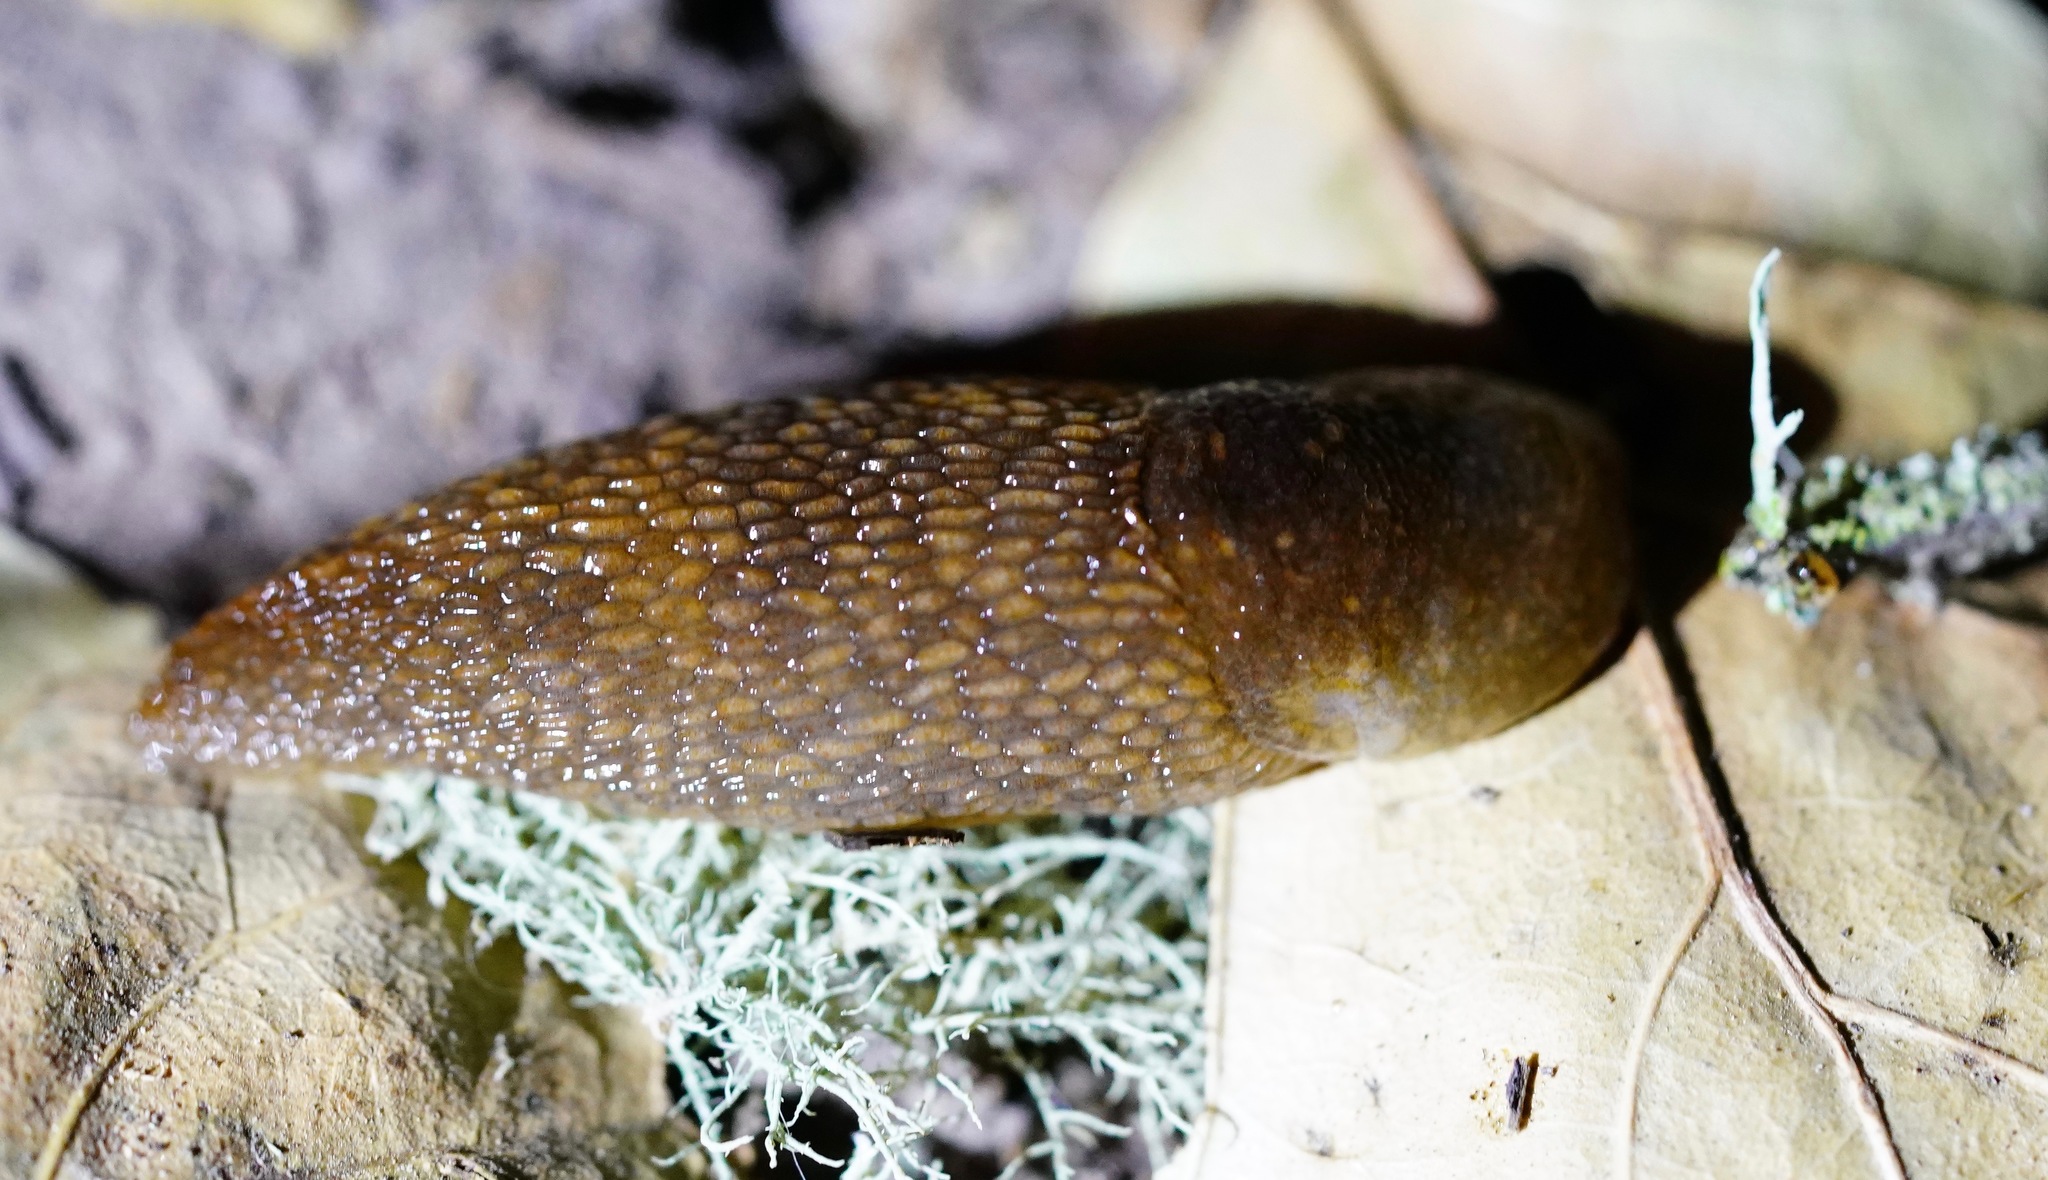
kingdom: Animalia
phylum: Mollusca
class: Gastropoda
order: Stylommatophora
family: Limacidae
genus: Limacus
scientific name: Limacus flavus
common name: Yellow gardenslug
